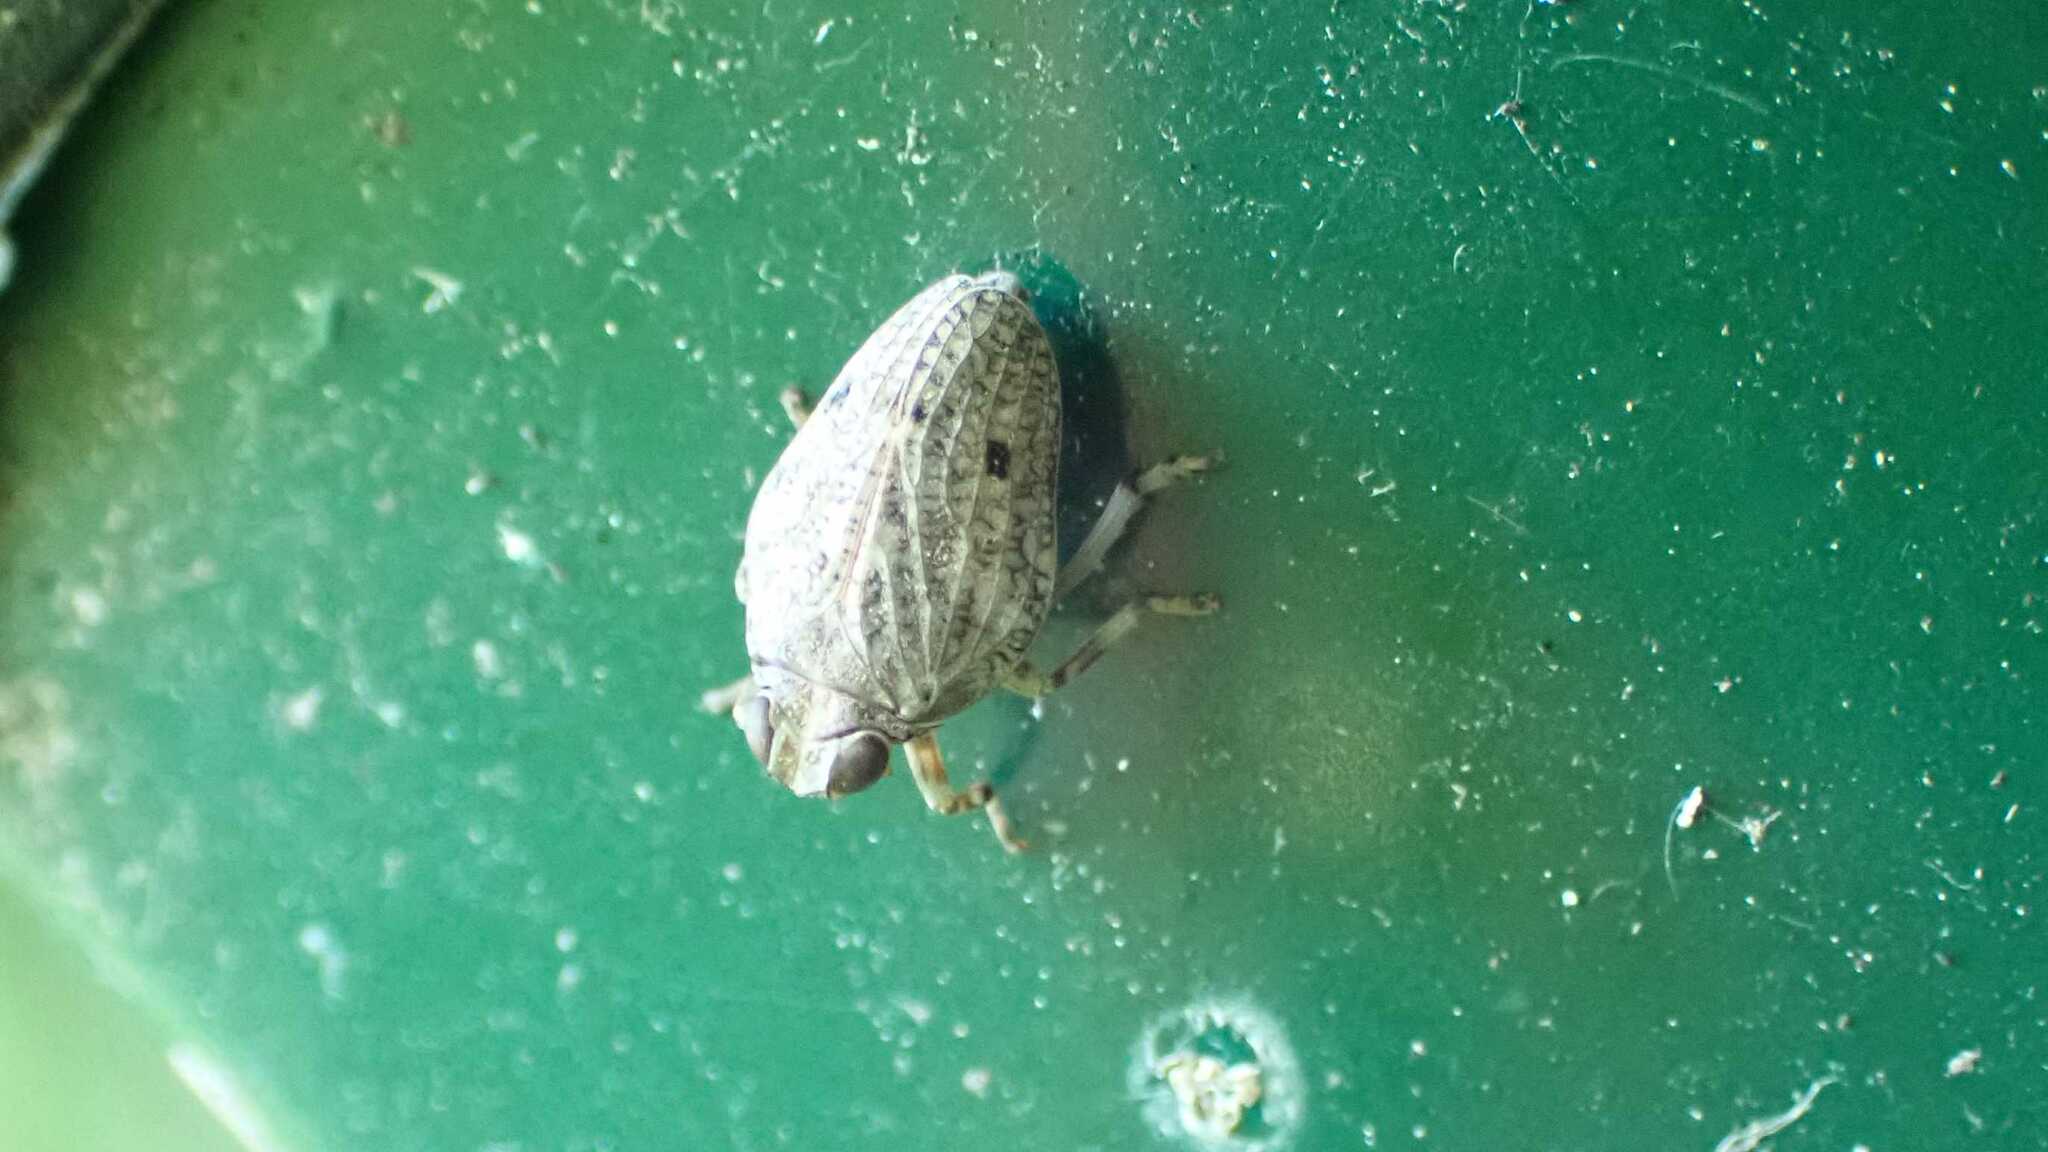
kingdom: Animalia
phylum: Arthropoda
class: Insecta
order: Hemiptera
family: Issidae
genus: Issus
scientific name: Issus
